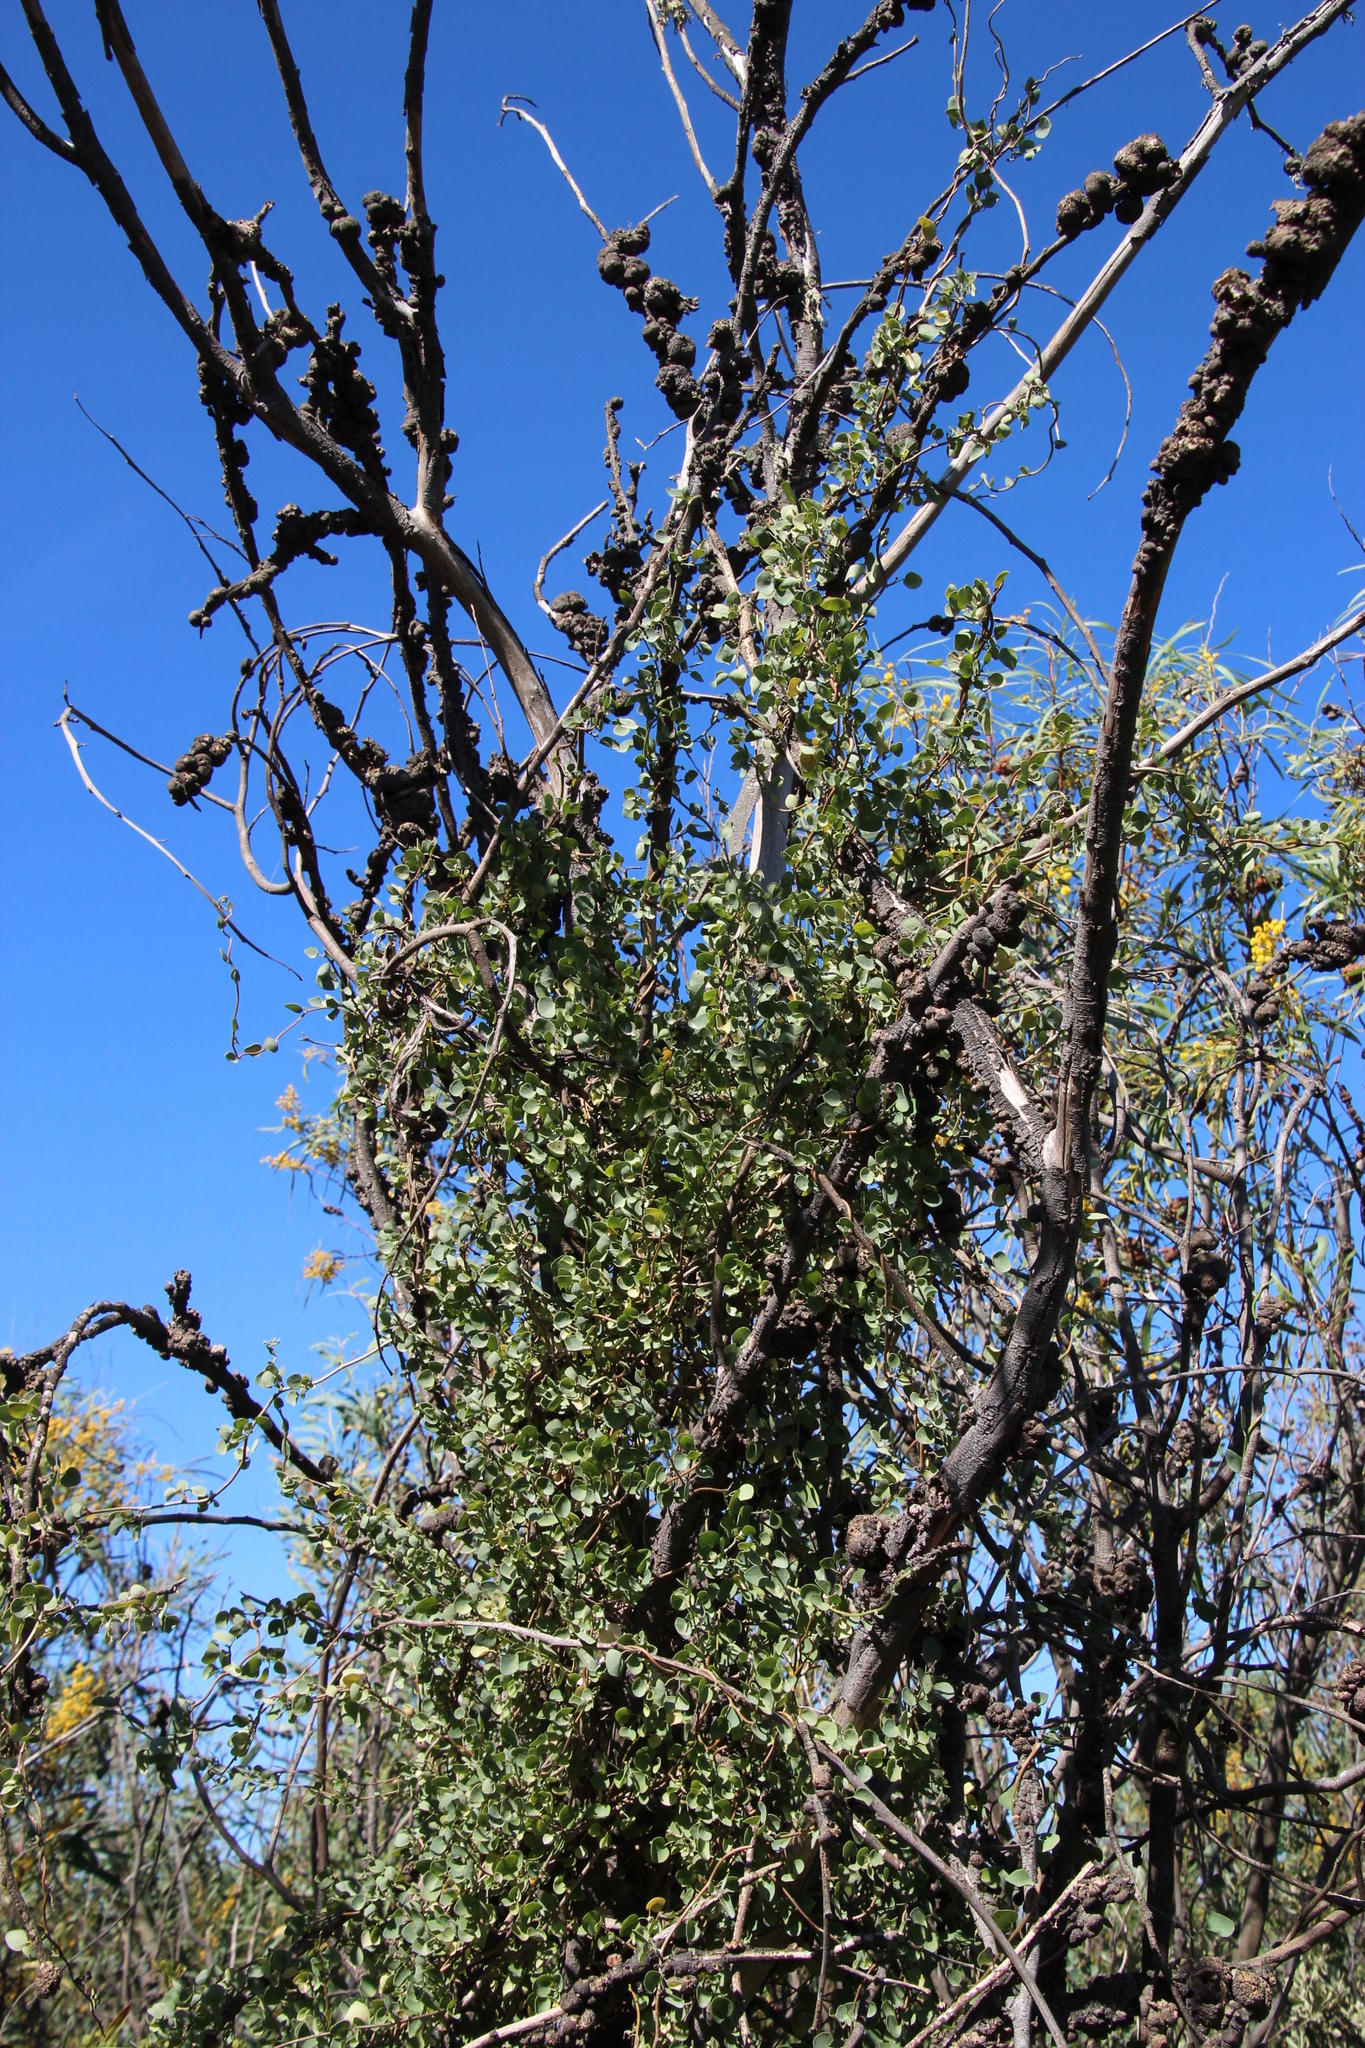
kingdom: Plantae
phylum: Tracheophyta
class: Magnoliopsida
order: Ranunculales
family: Menispermaceae
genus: Cissampelos
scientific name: Cissampelos capensis
